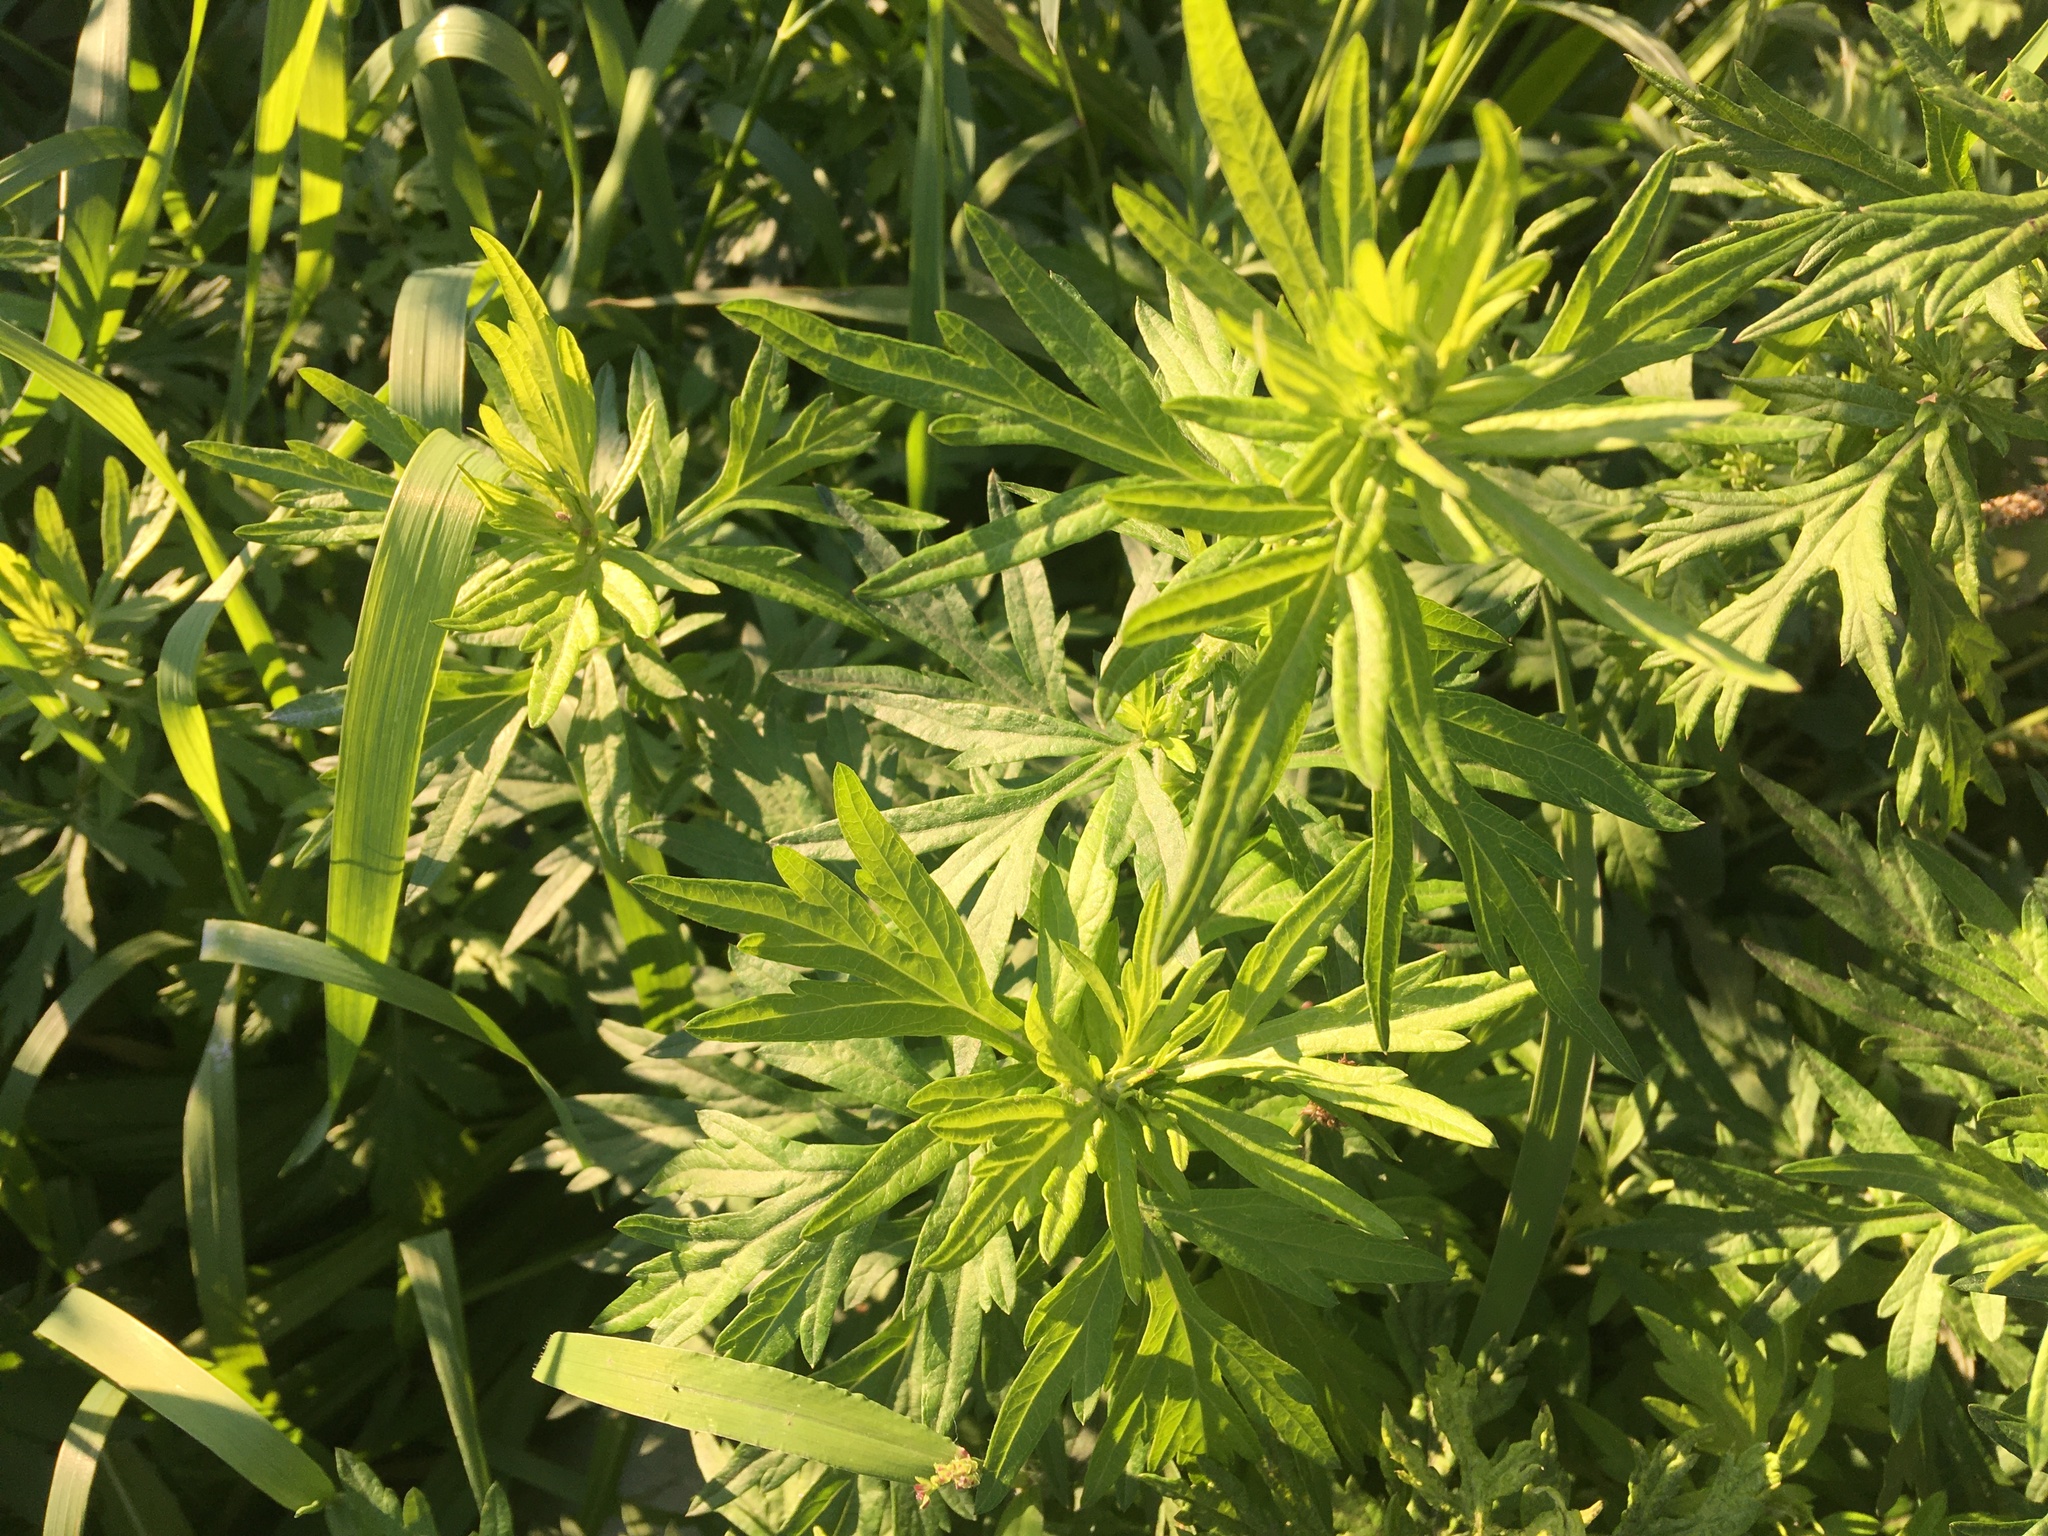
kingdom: Plantae
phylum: Tracheophyta
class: Magnoliopsida
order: Asterales
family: Asteraceae
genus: Artemisia
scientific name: Artemisia vulgaris
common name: Mugwort
